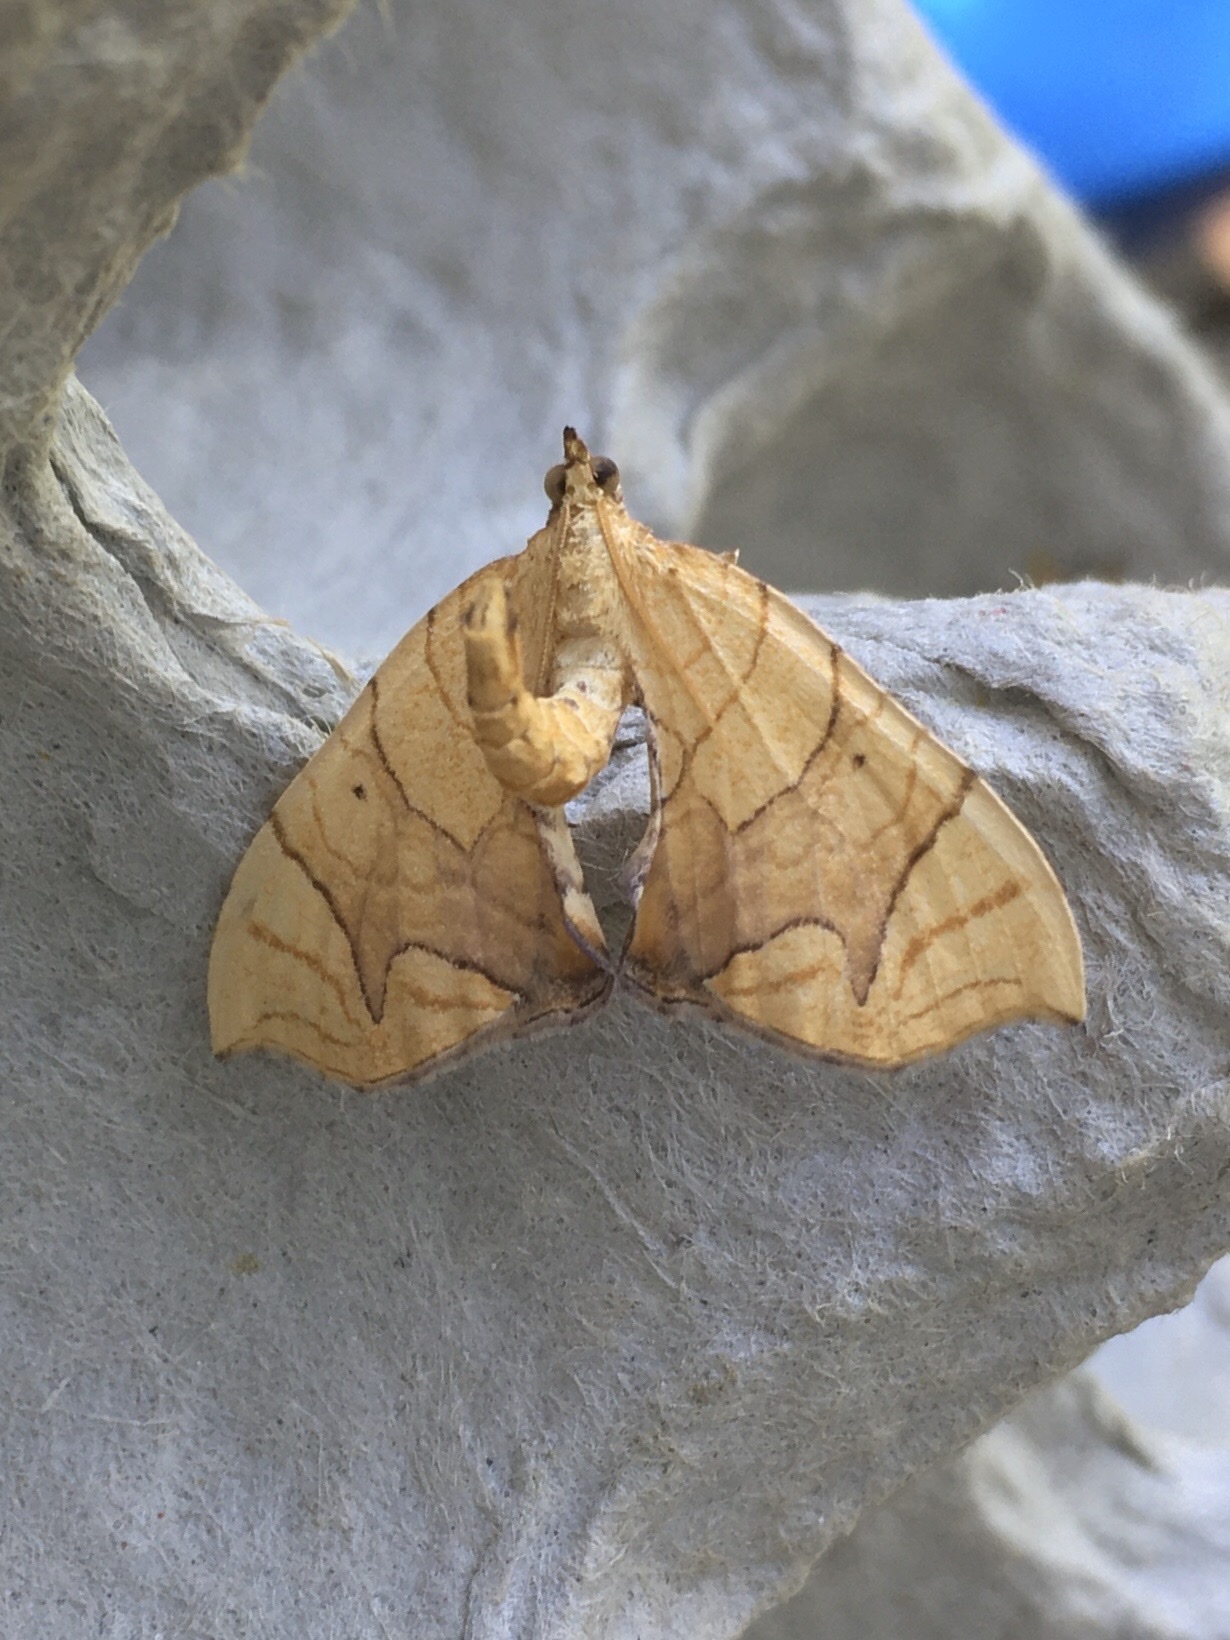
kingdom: Animalia
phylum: Arthropoda
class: Insecta
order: Lepidoptera
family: Geometridae
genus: Eulithis
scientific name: Eulithis
